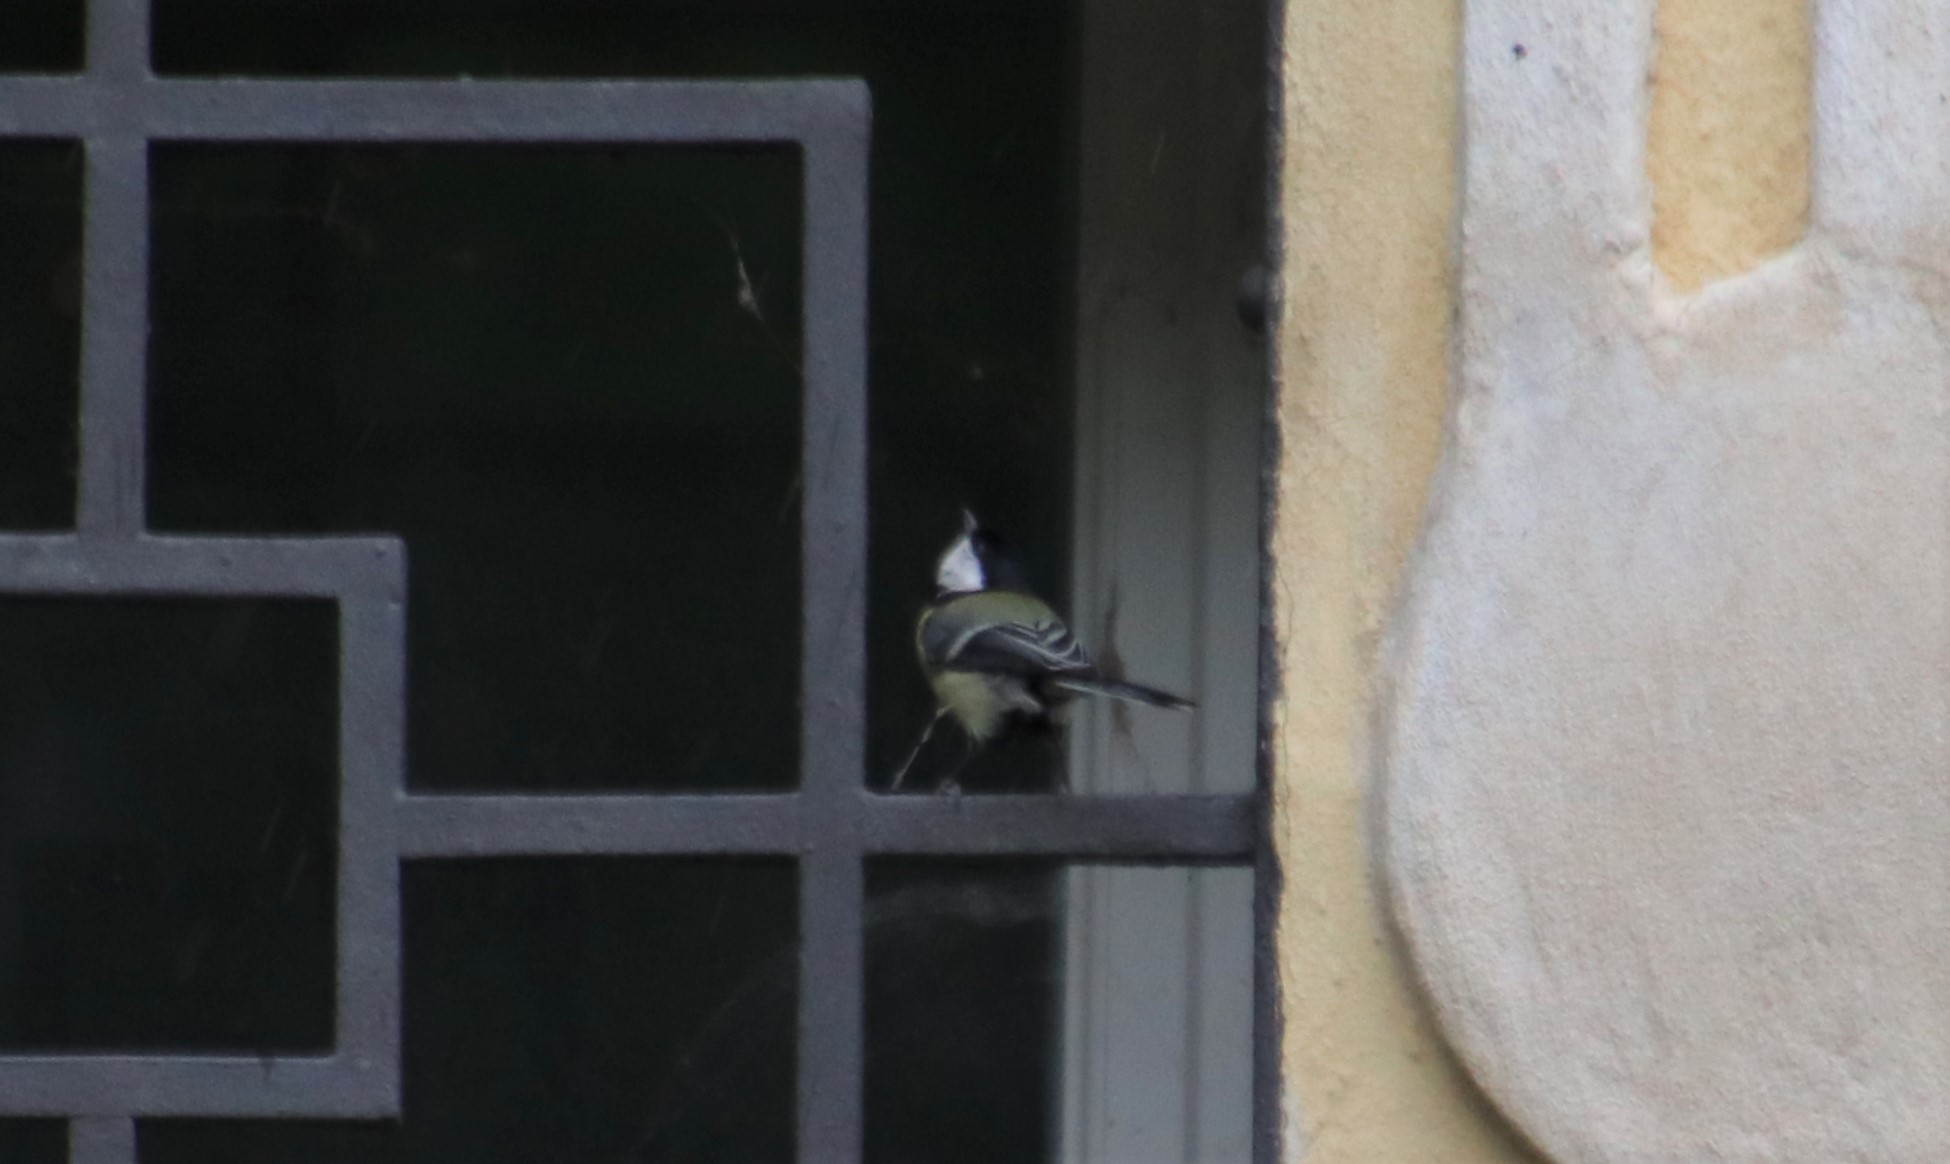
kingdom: Animalia
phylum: Chordata
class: Aves
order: Passeriformes
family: Paridae
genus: Parus
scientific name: Parus major
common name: Great tit
